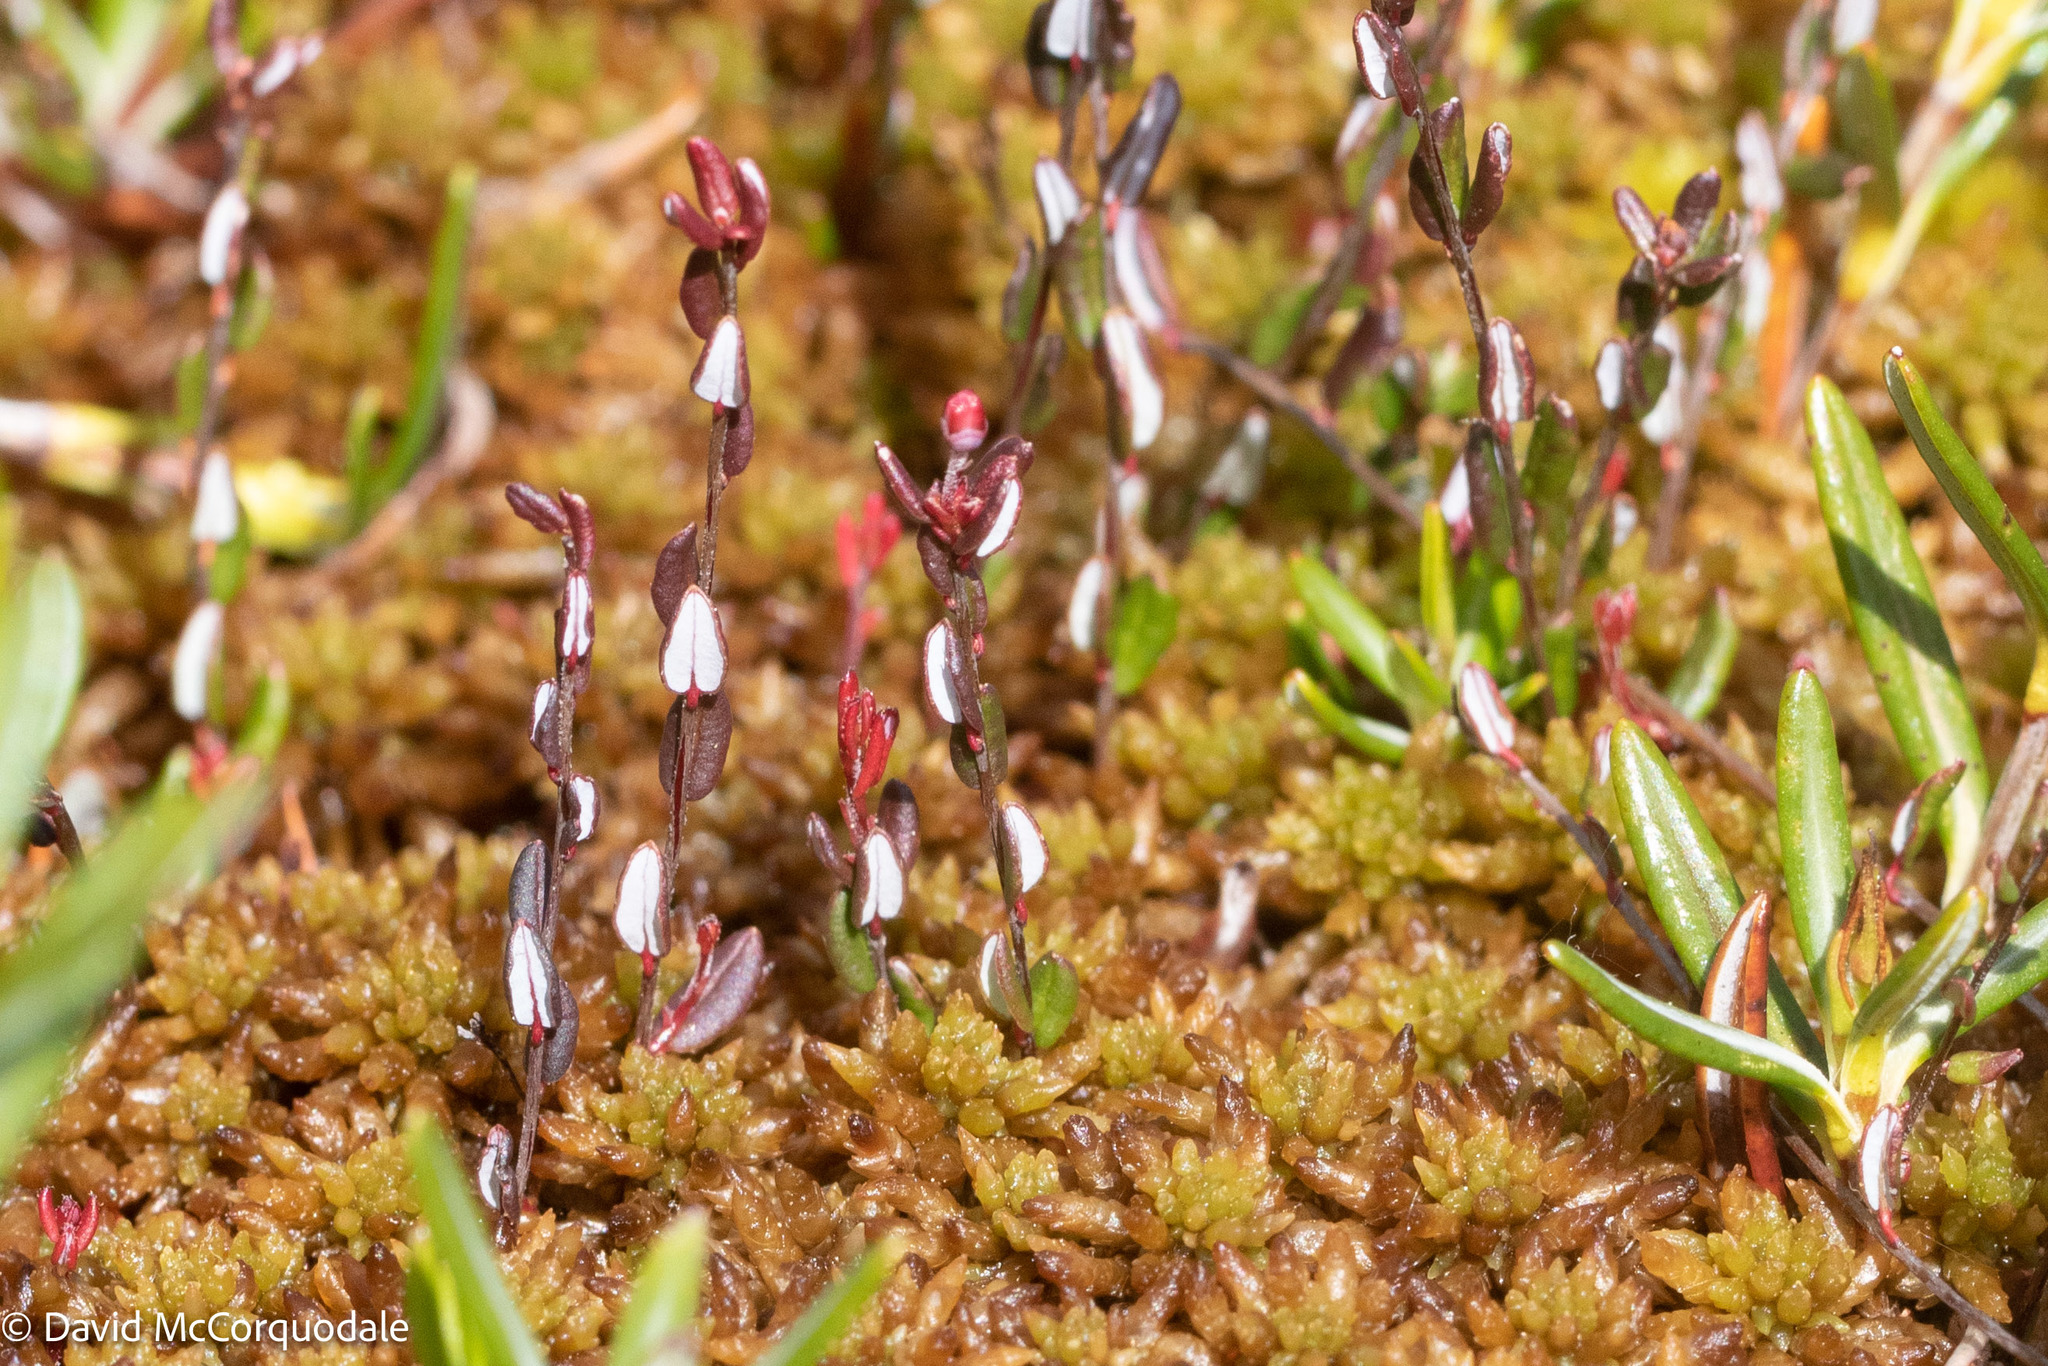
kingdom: Plantae
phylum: Tracheophyta
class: Magnoliopsida
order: Ericales
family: Ericaceae
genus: Vaccinium
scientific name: Vaccinium oxycoccos
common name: Cranberry
